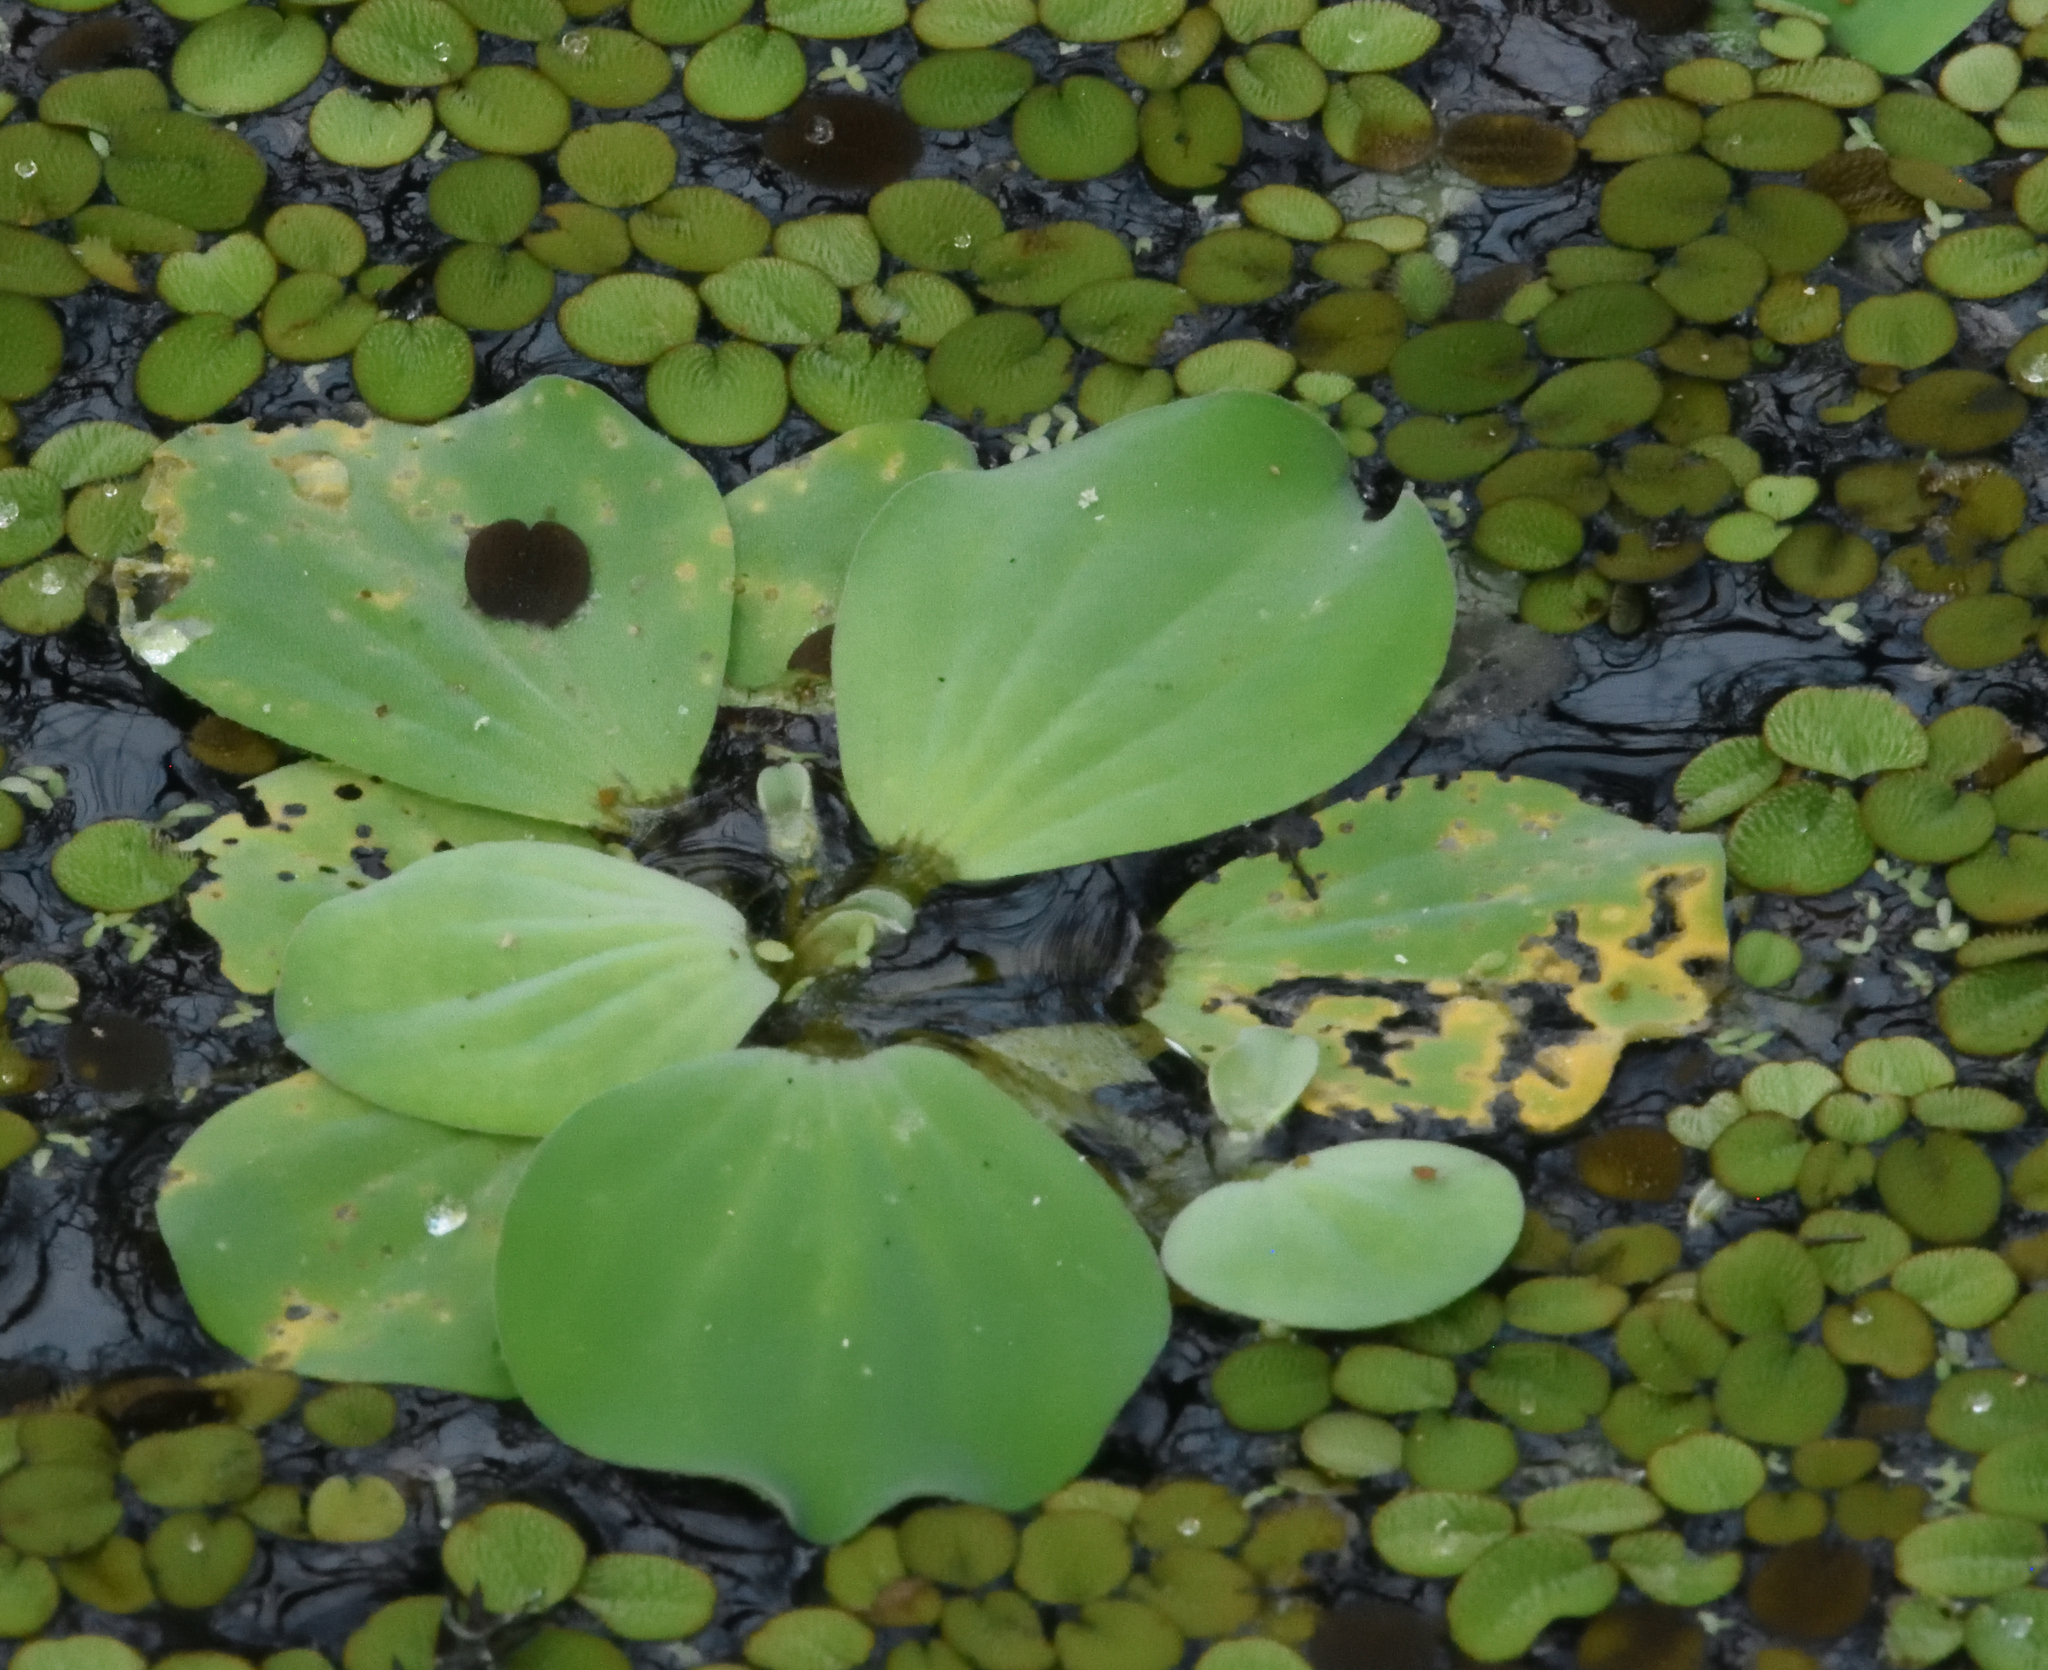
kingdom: Plantae
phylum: Tracheophyta
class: Liliopsida
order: Alismatales
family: Araceae
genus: Pistia
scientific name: Pistia stratiotes
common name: Water lettuce
